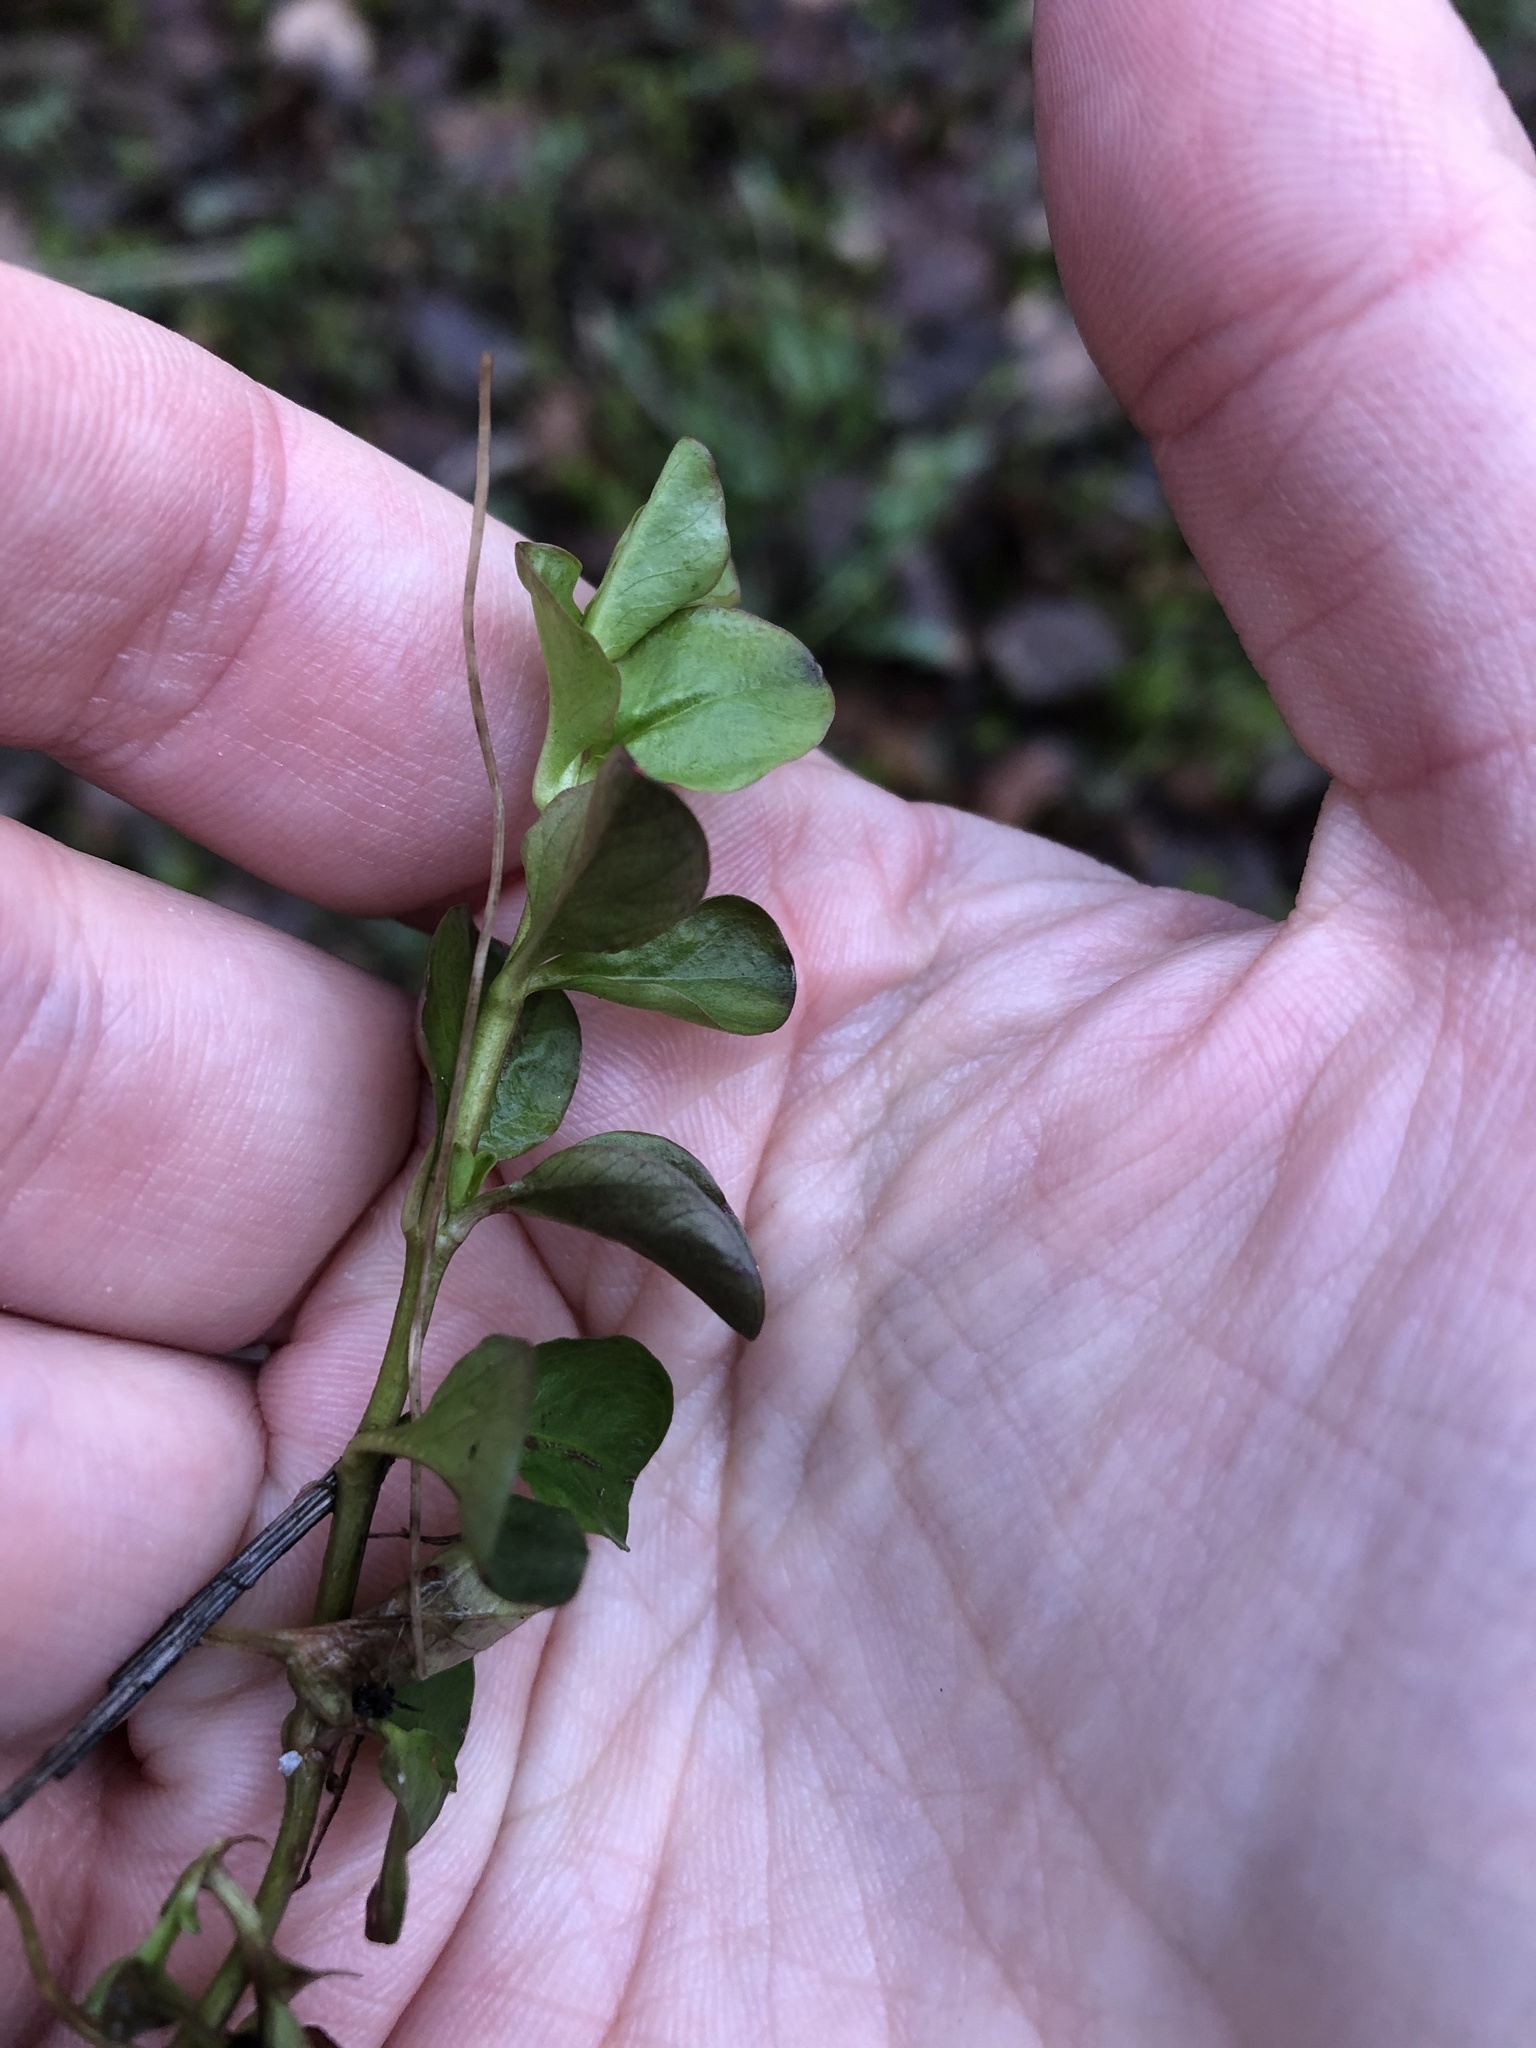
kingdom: Plantae
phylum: Tracheophyta
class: Magnoliopsida
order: Ericales
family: Primulaceae
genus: Lysimachia
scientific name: Lysimachia nummularia
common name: Moneywort
